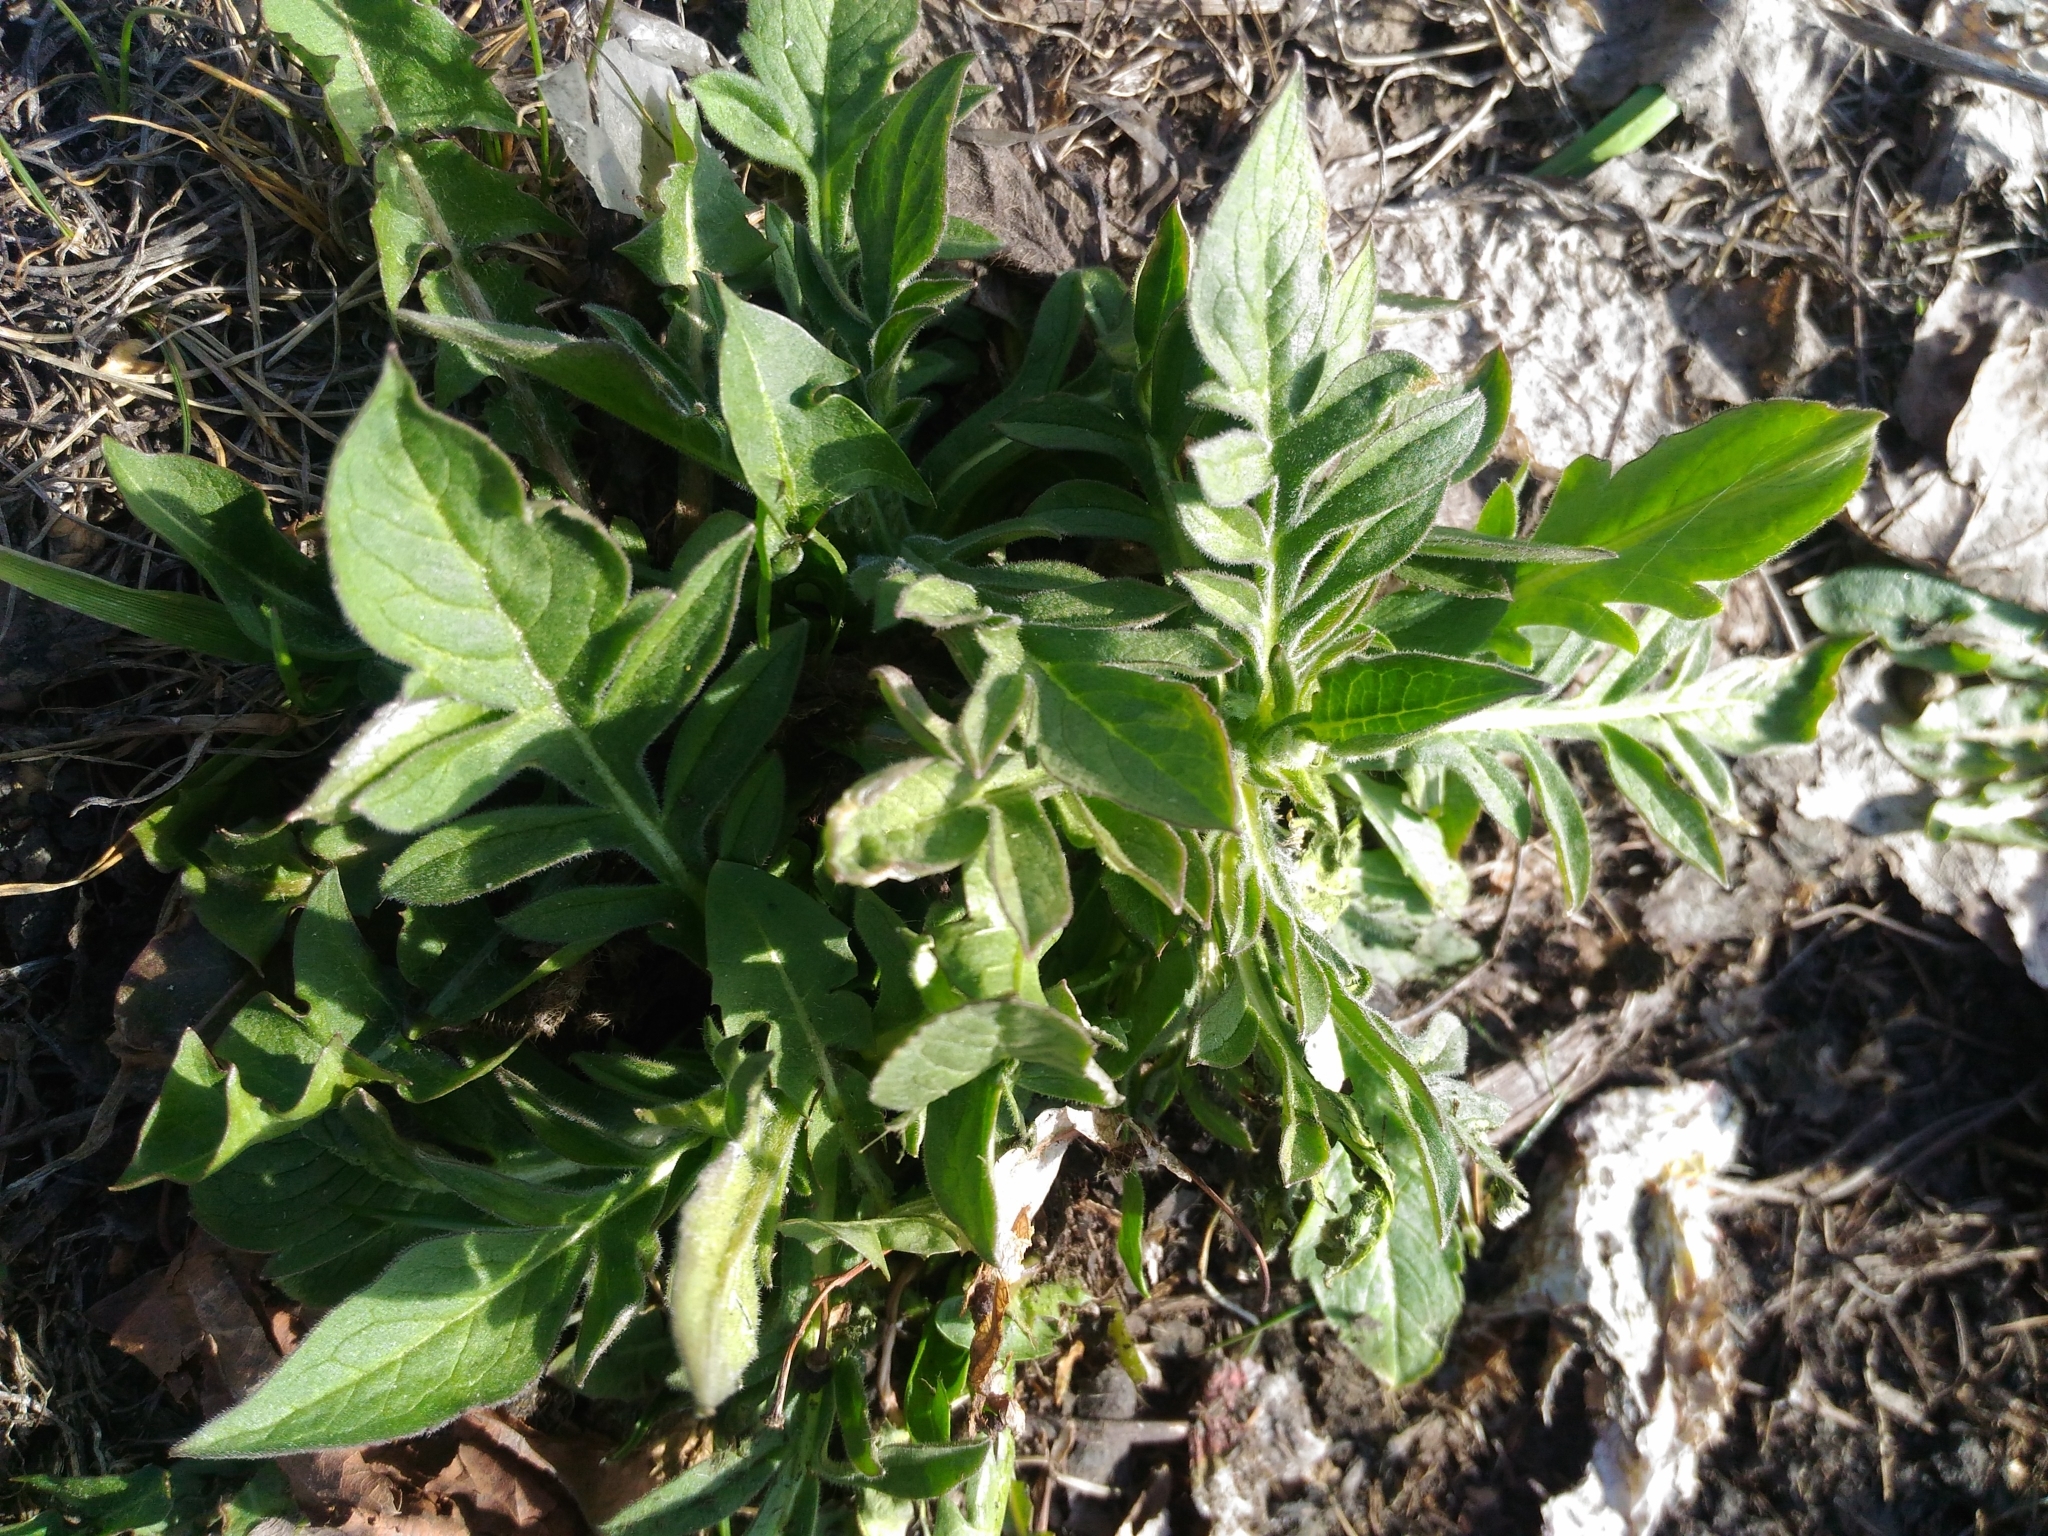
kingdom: Plantae
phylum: Tracheophyta
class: Magnoliopsida
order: Dipsacales
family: Caprifoliaceae
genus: Knautia
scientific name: Knautia arvensis
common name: Field scabiosa
